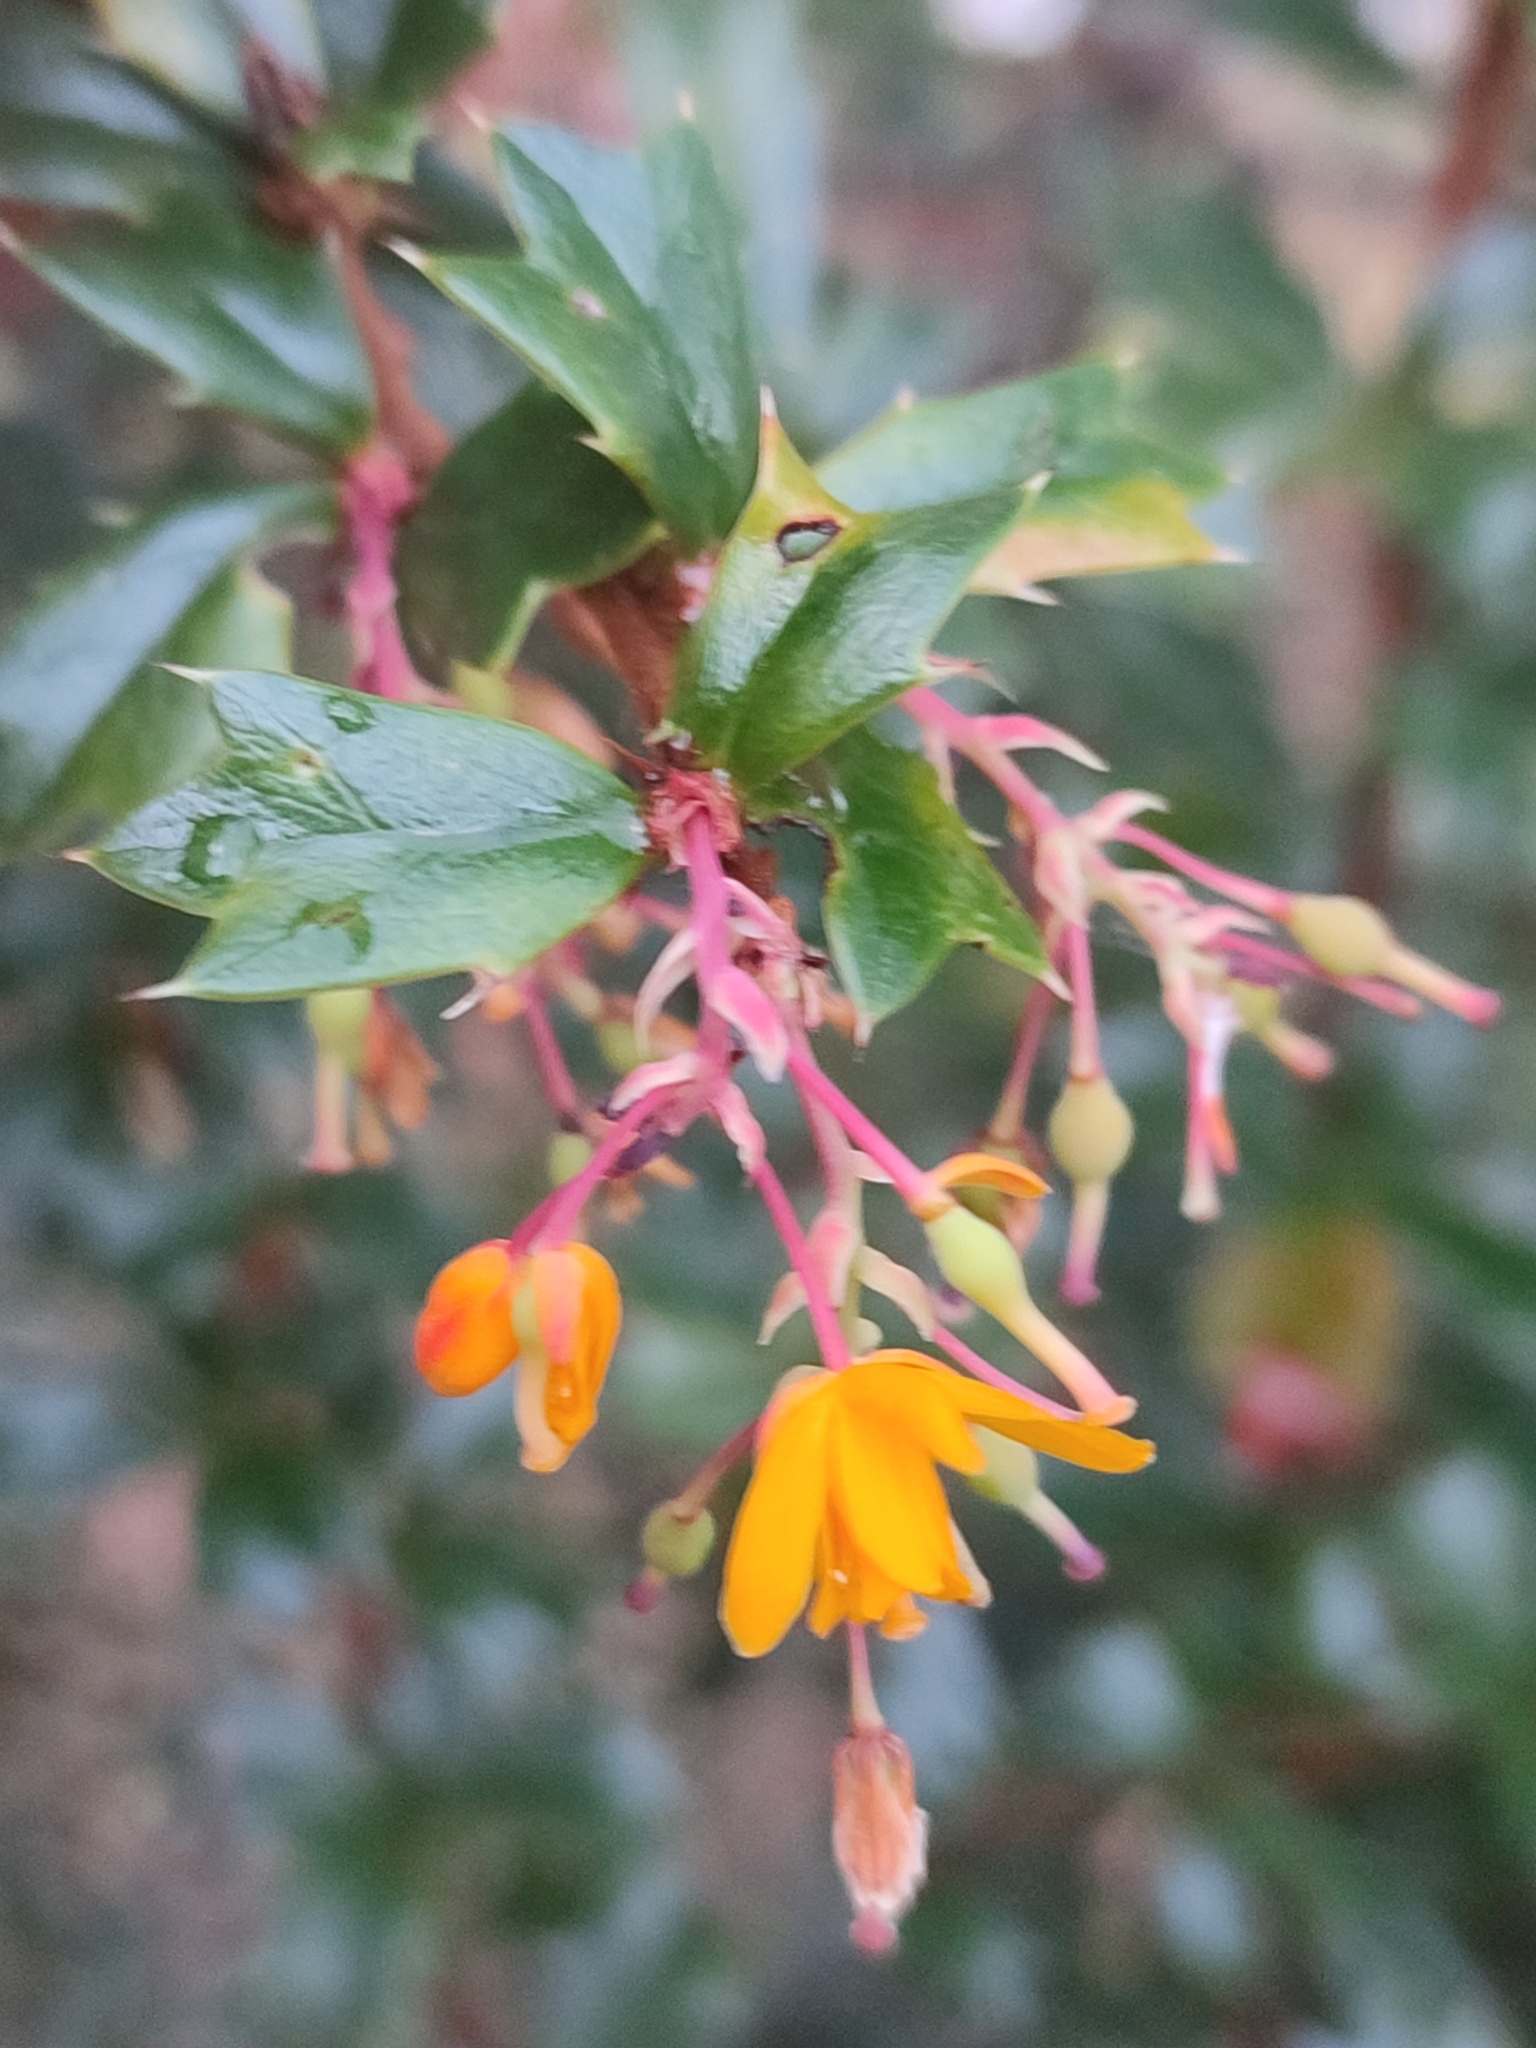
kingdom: Plantae
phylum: Tracheophyta
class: Magnoliopsida
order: Ranunculales
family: Berberidaceae
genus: Berberis
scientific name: Berberis darwinii
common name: Darwin's barberry
